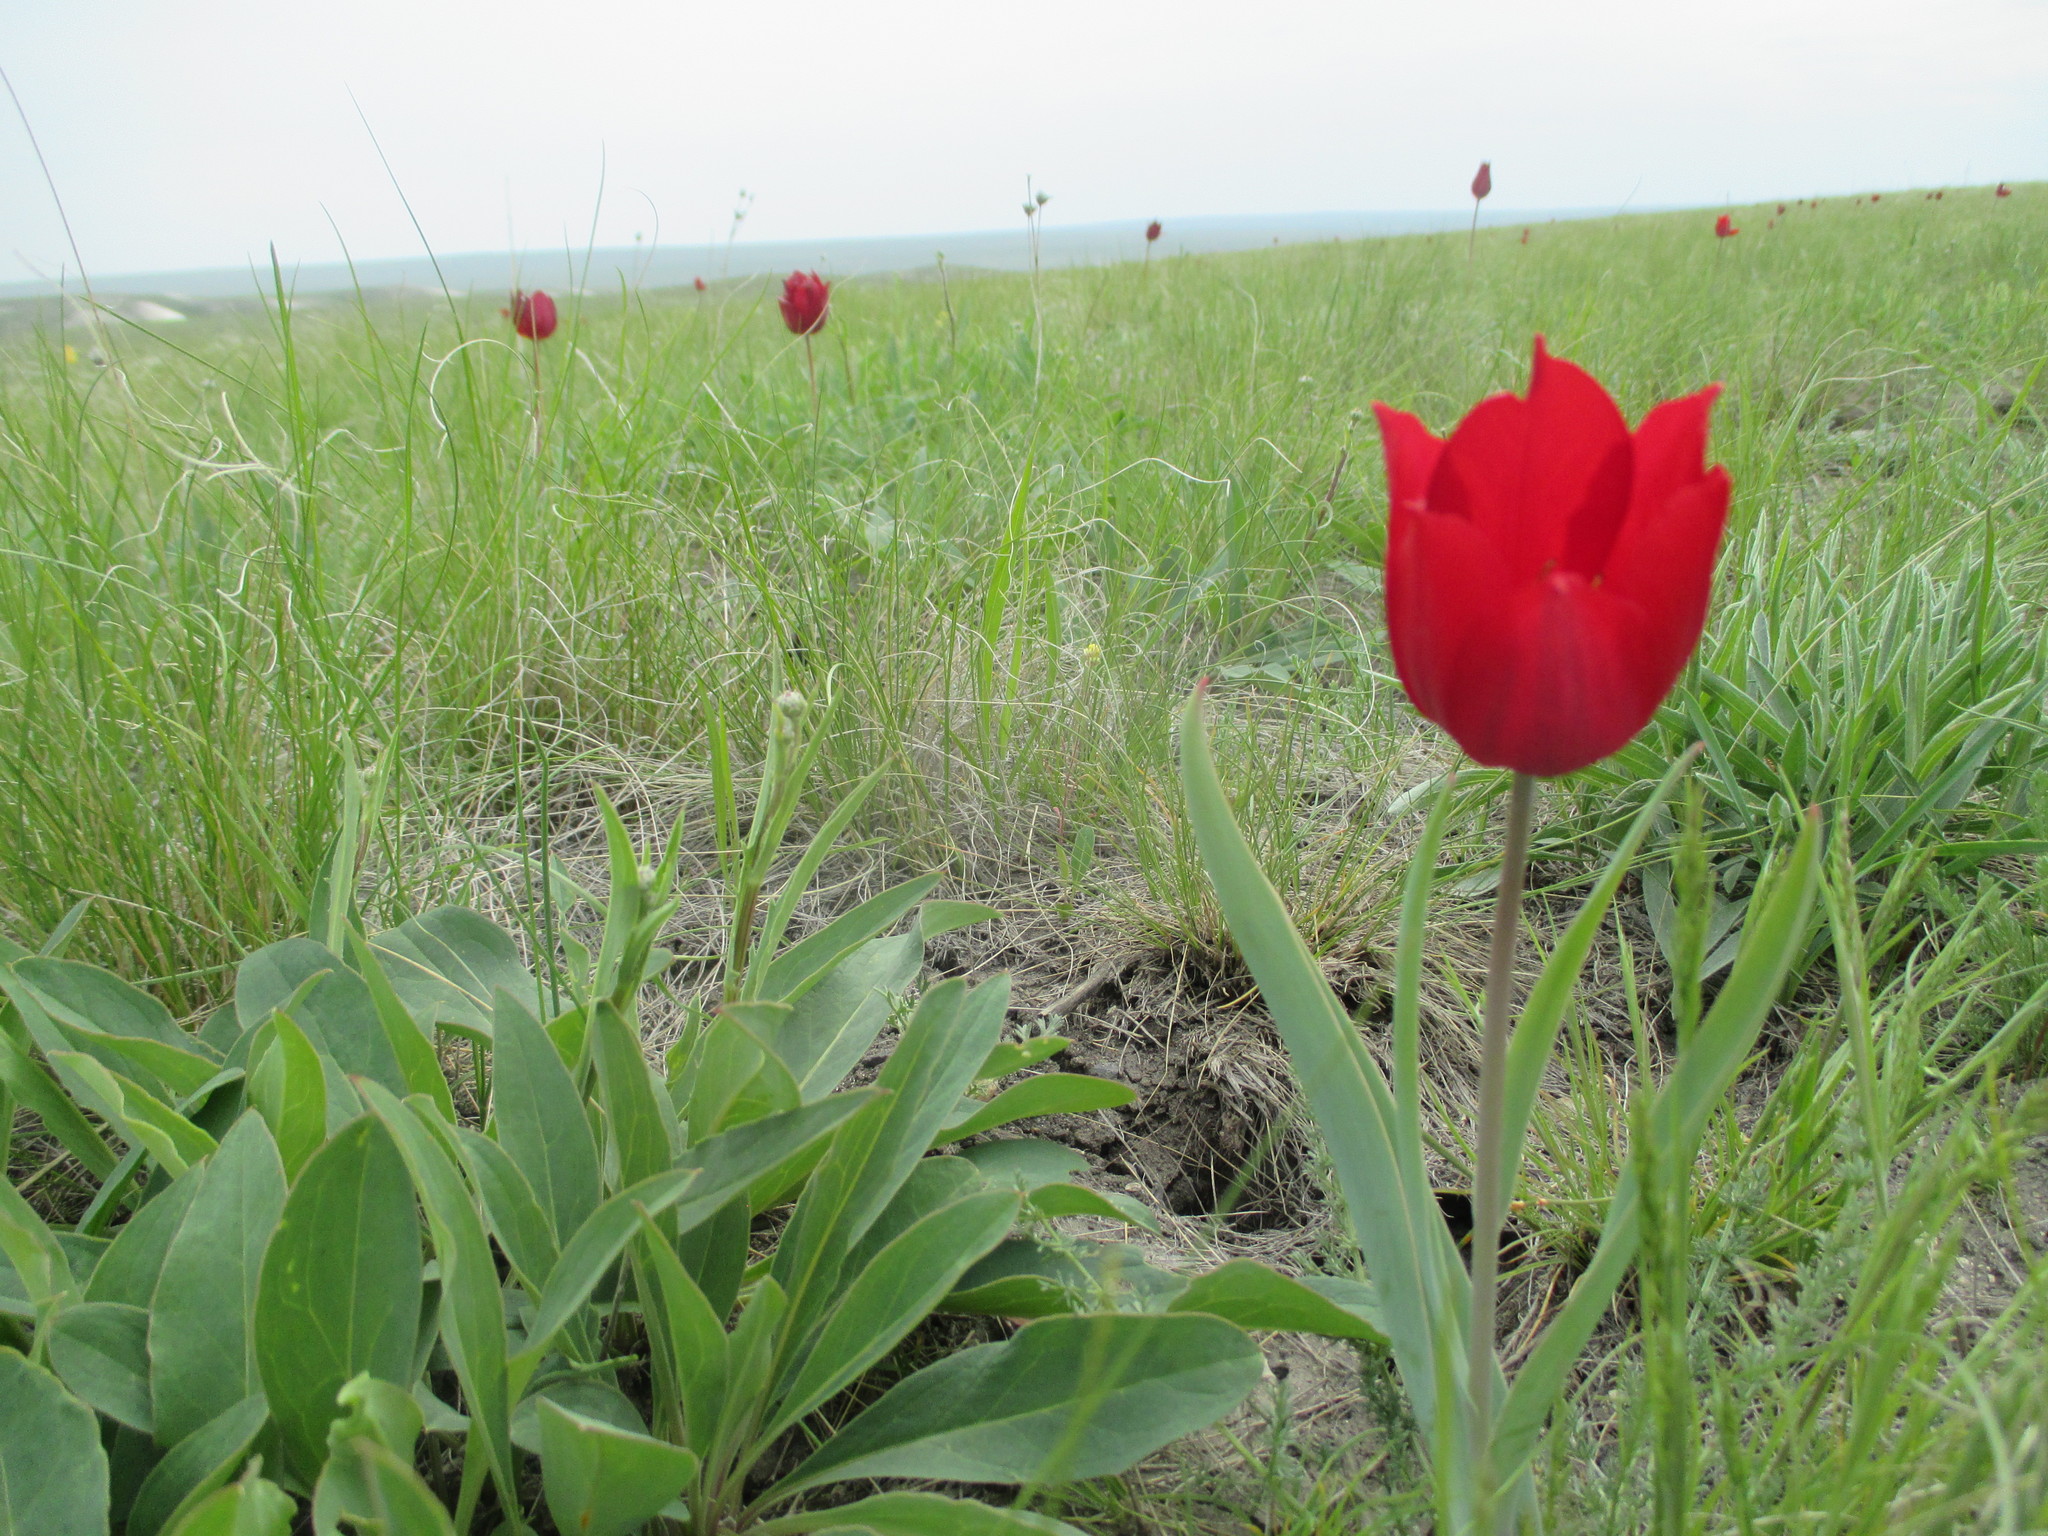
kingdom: Plantae
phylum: Tracheophyta
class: Liliopsida
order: Liliales
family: Liliaceae
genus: Tulipa
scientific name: Tulipa suaveolens
